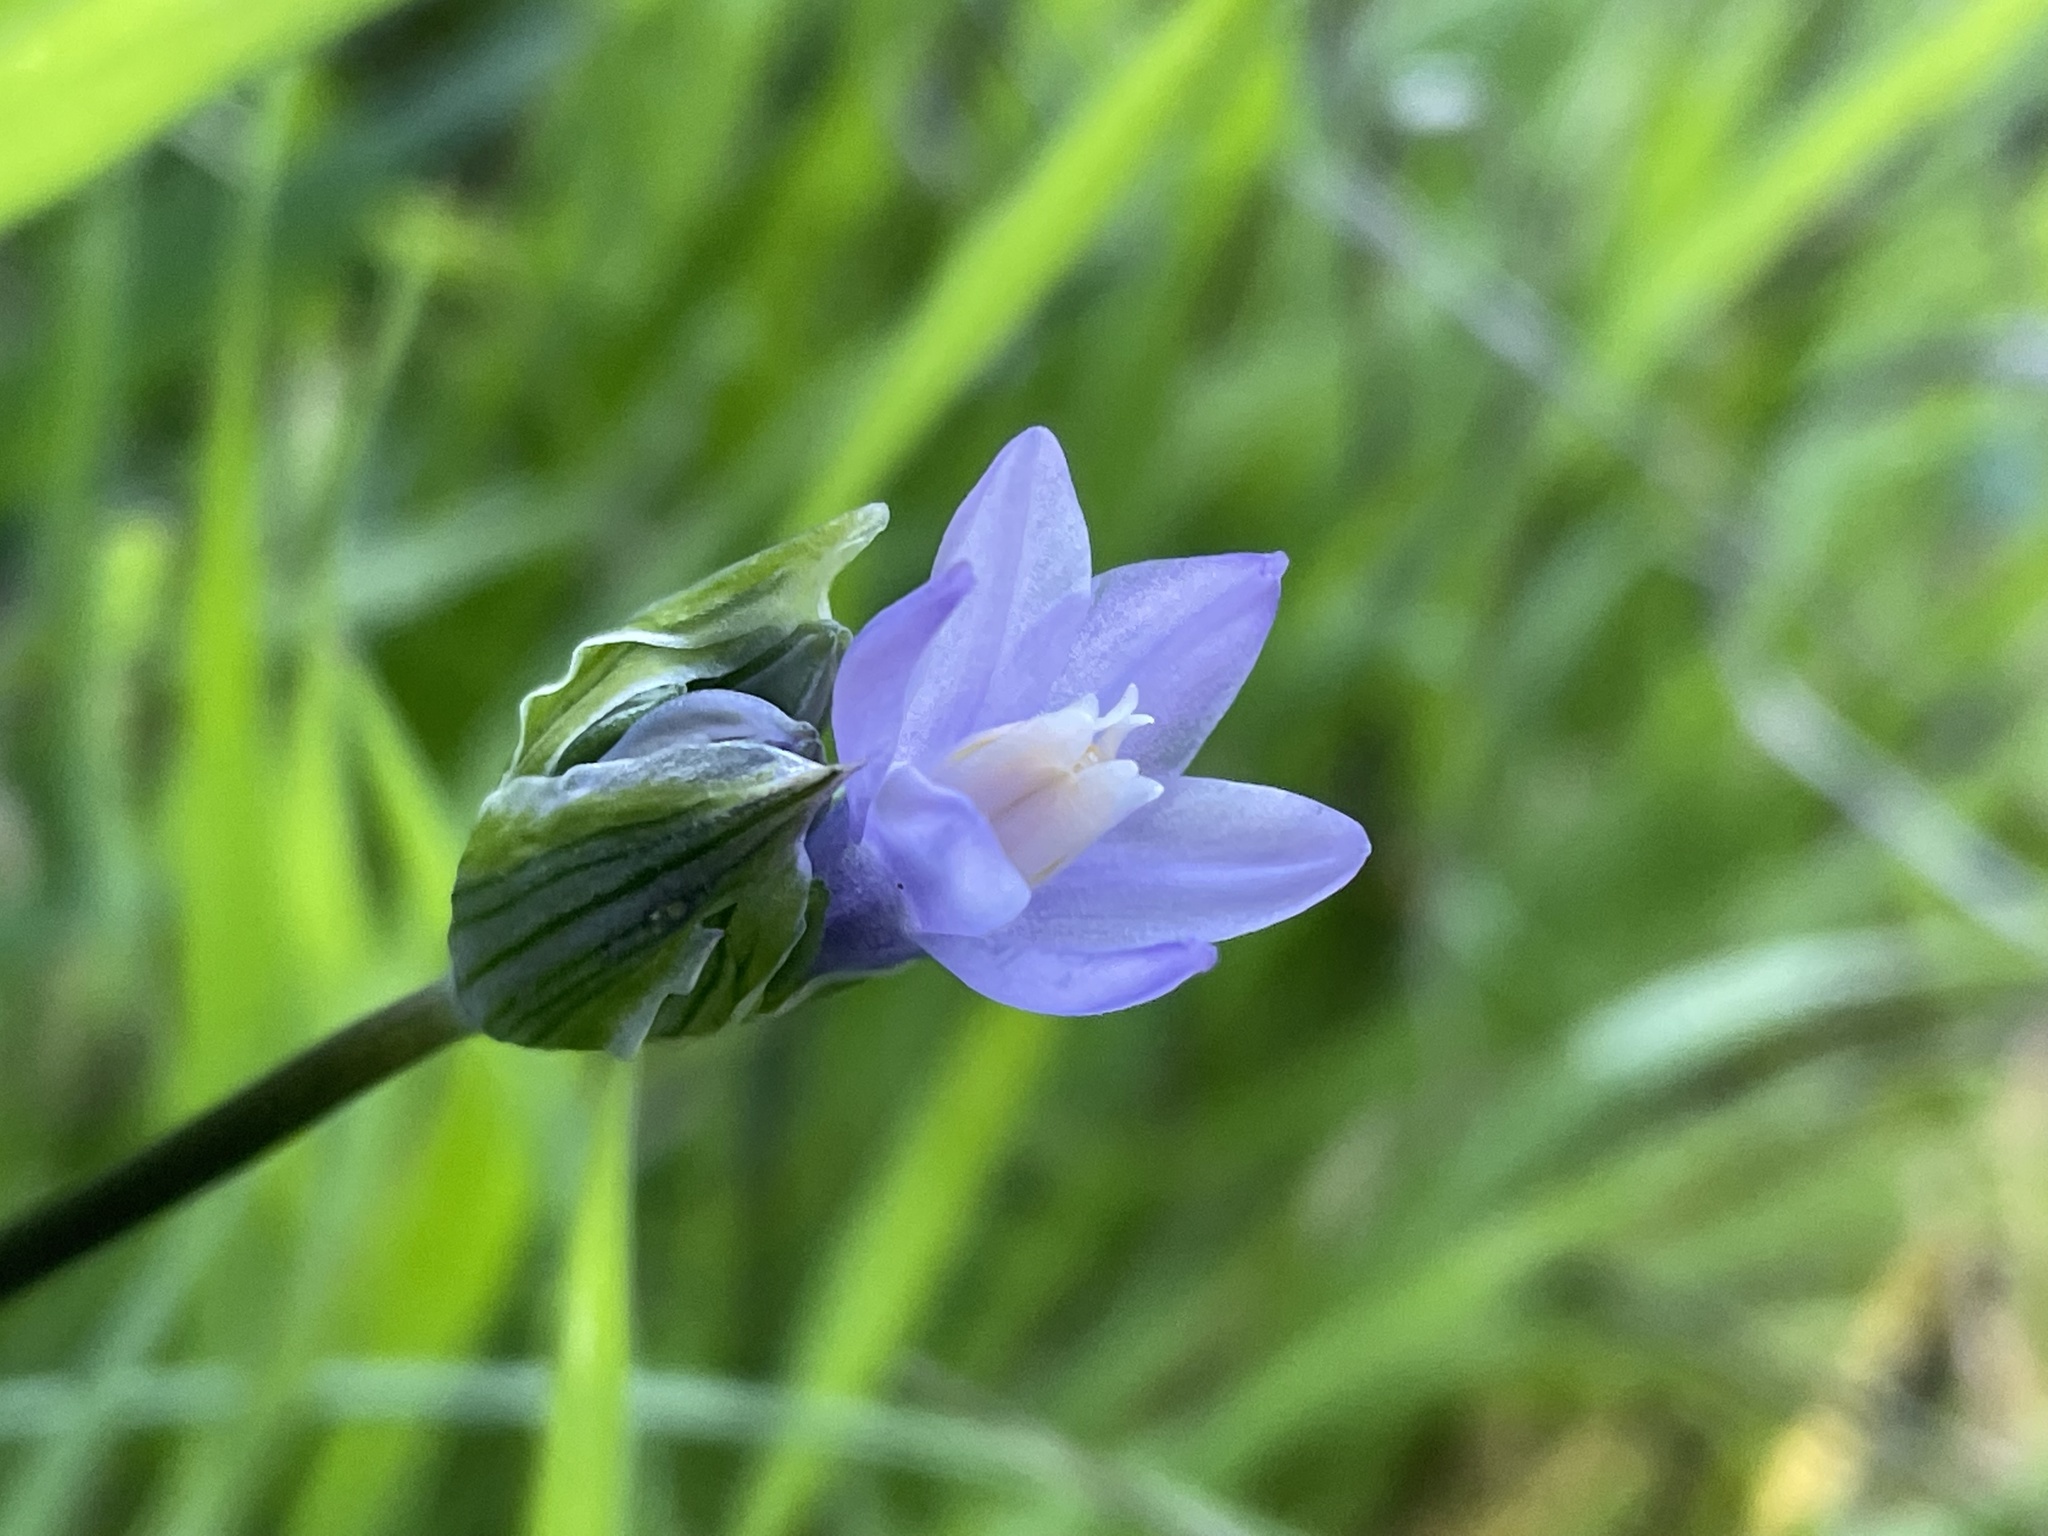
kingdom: Plantae
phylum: Tracheophyta
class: Liliopsida
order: Asparagales
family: Asparagaceae
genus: Dipterostemon
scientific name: Dipterostemon capitatus
